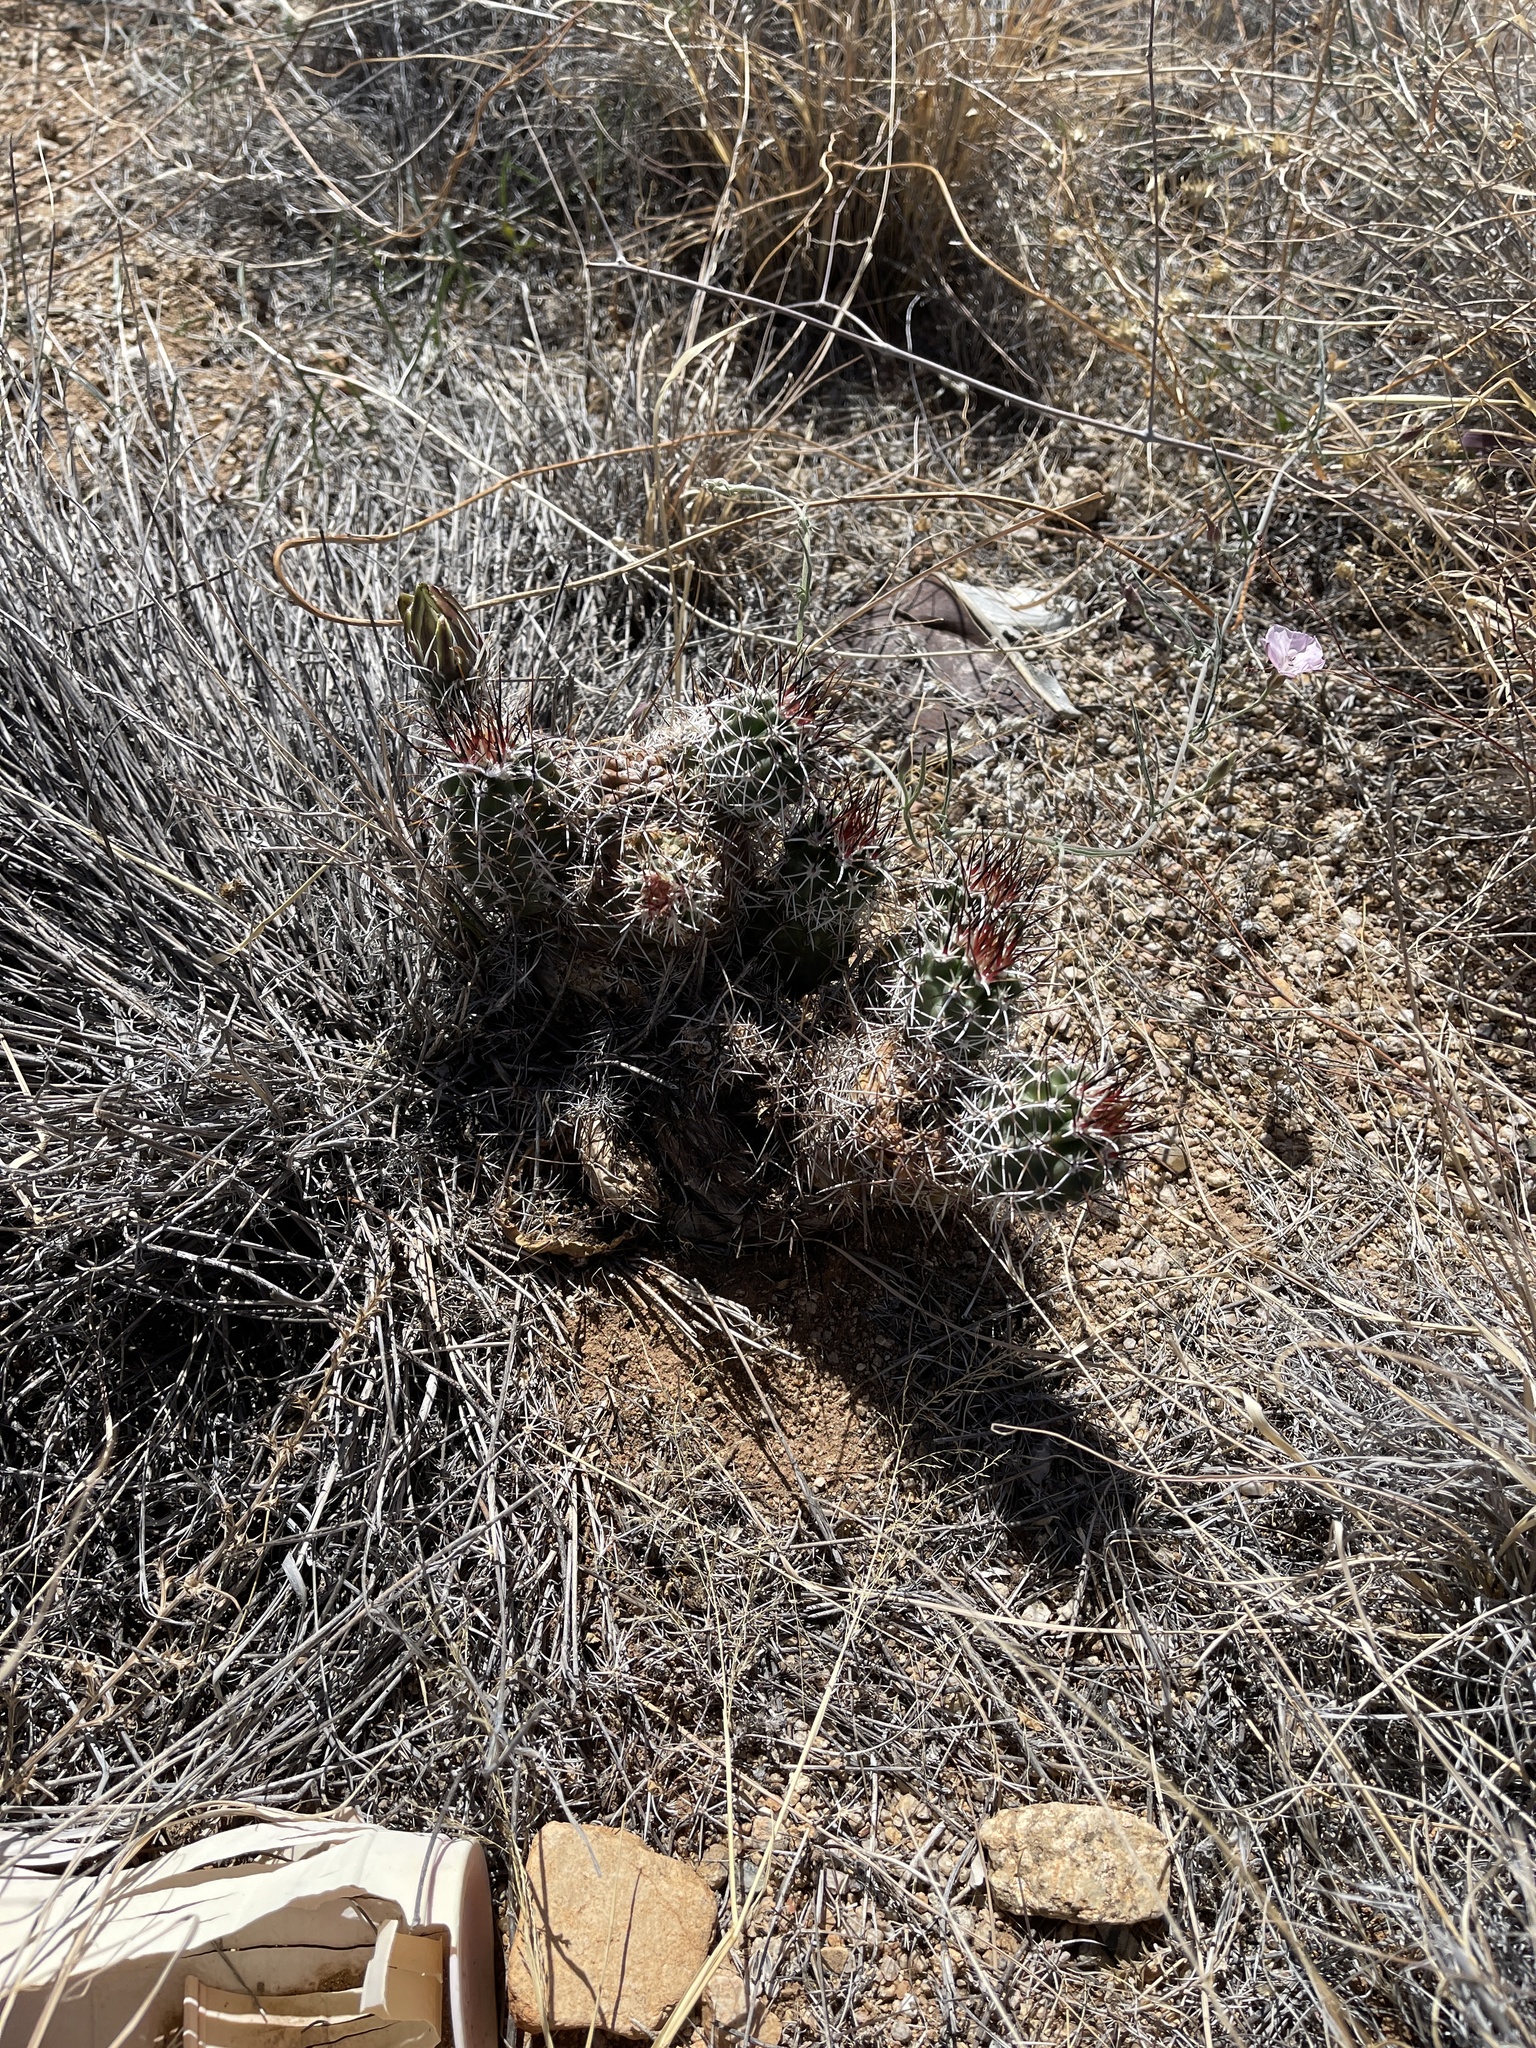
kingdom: Plantae
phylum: Tracheophyta
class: Magnoliopsida
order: Caryophyllales
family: Cactaceae
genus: Echinocereus
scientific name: Echinocereus fendleri
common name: Fendler's hedgehog cactus
